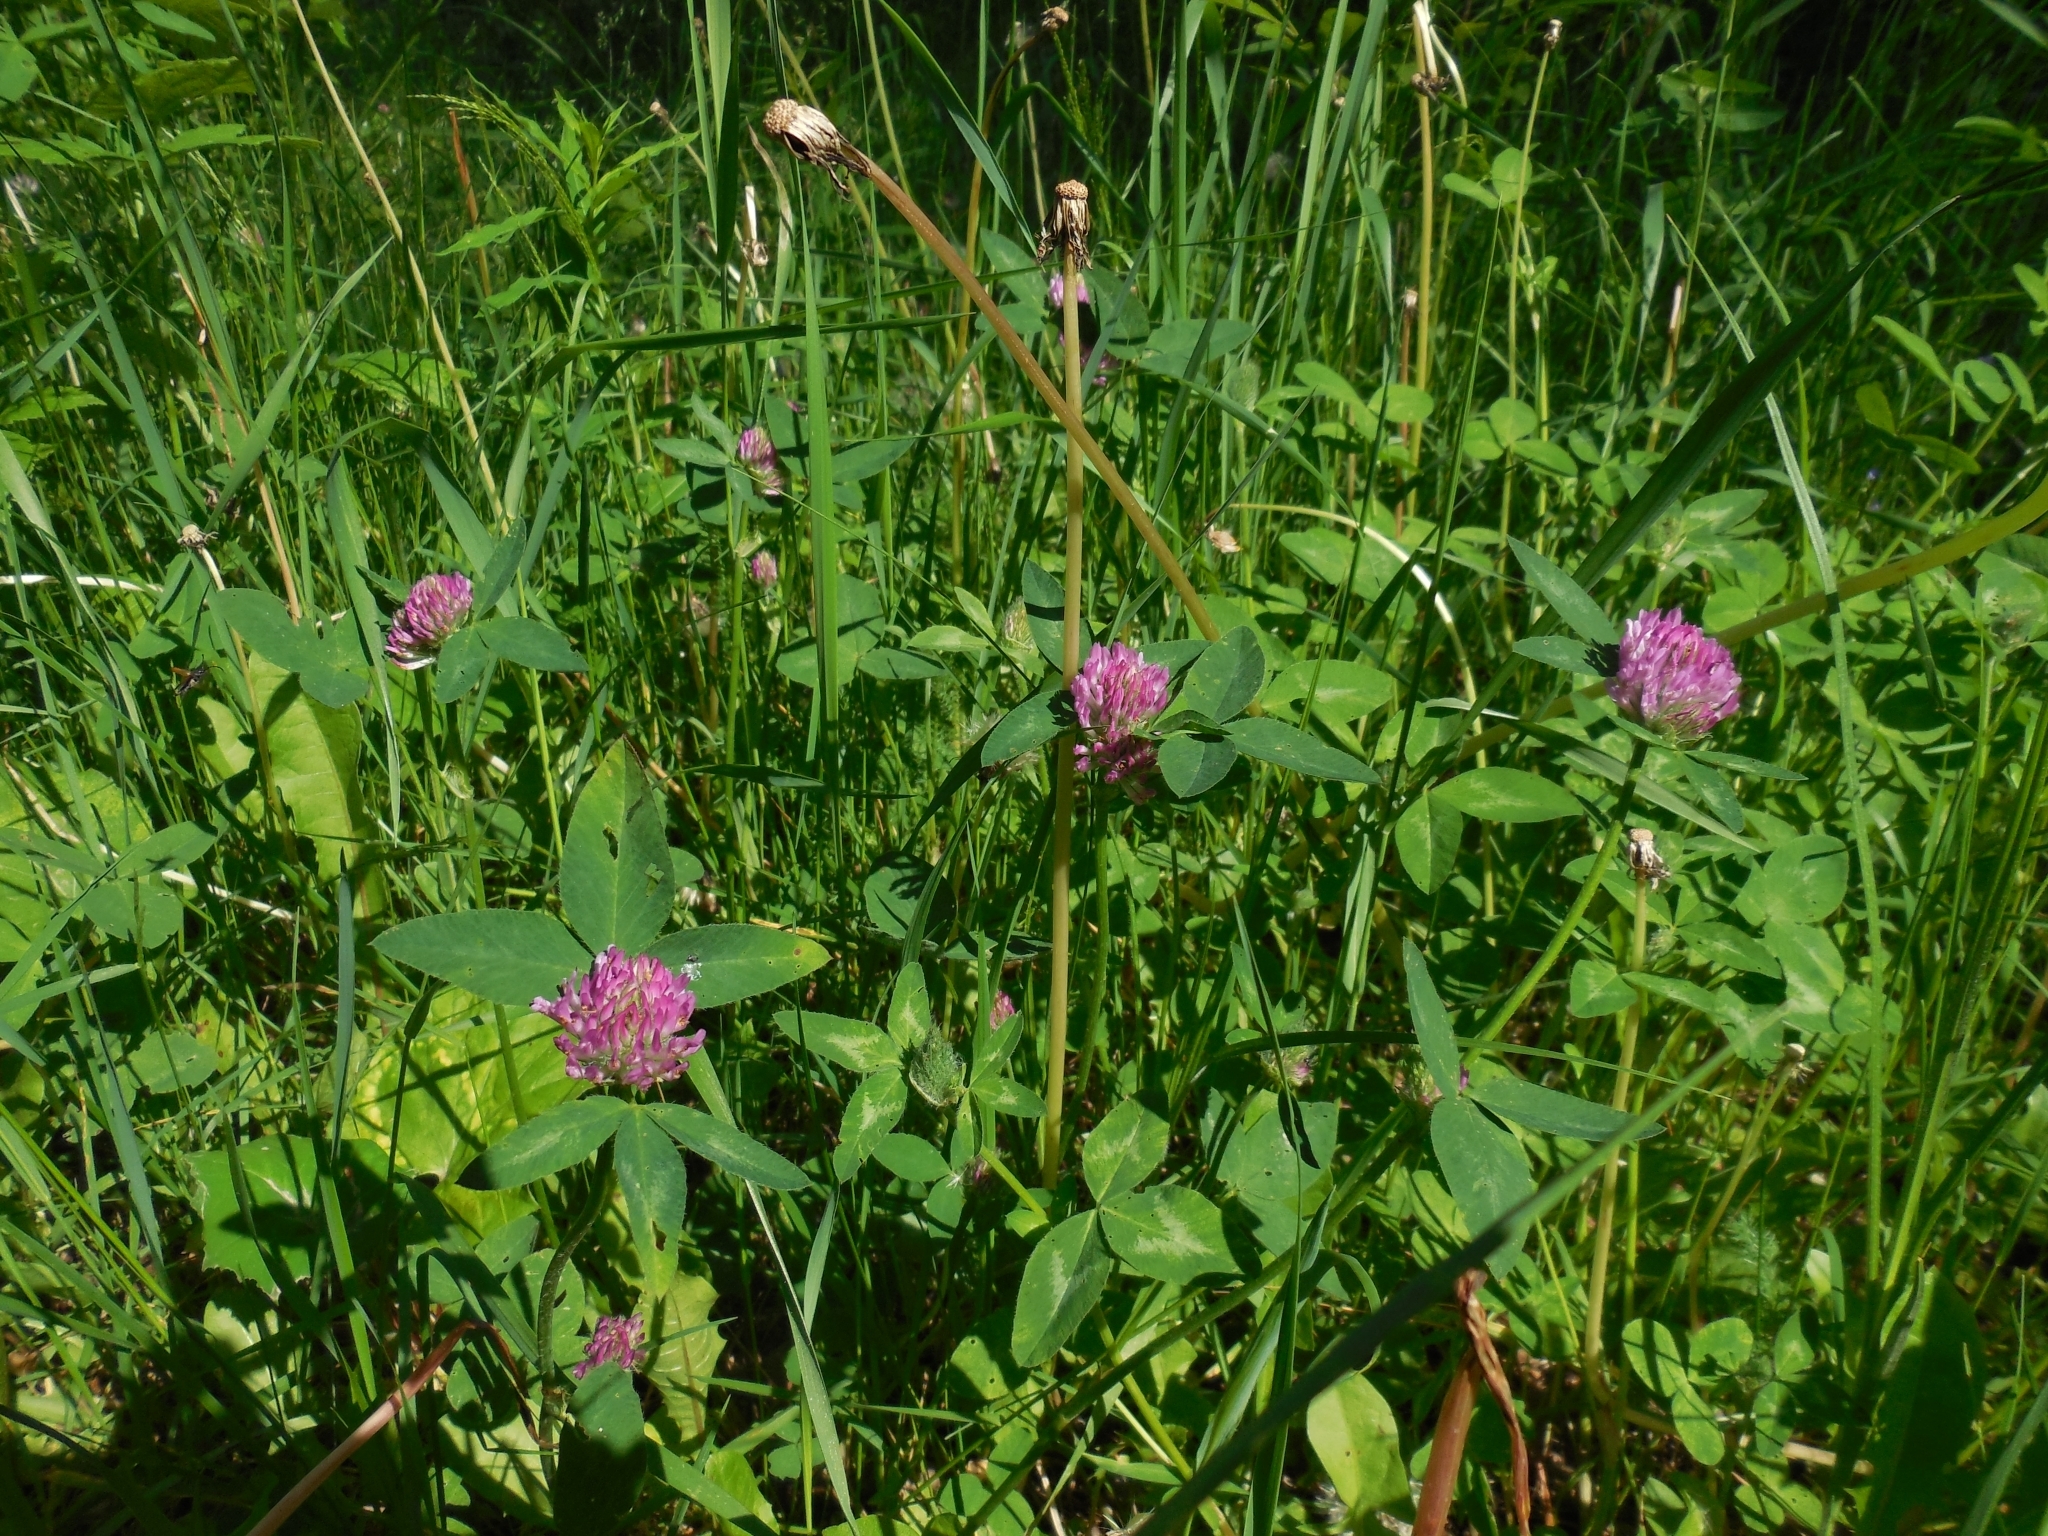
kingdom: Plantae
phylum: Tracheophyta
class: Magnoliopsida
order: Fabales
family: Fabaceae
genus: Trifolium
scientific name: Trifolium pratense
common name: Red clover
